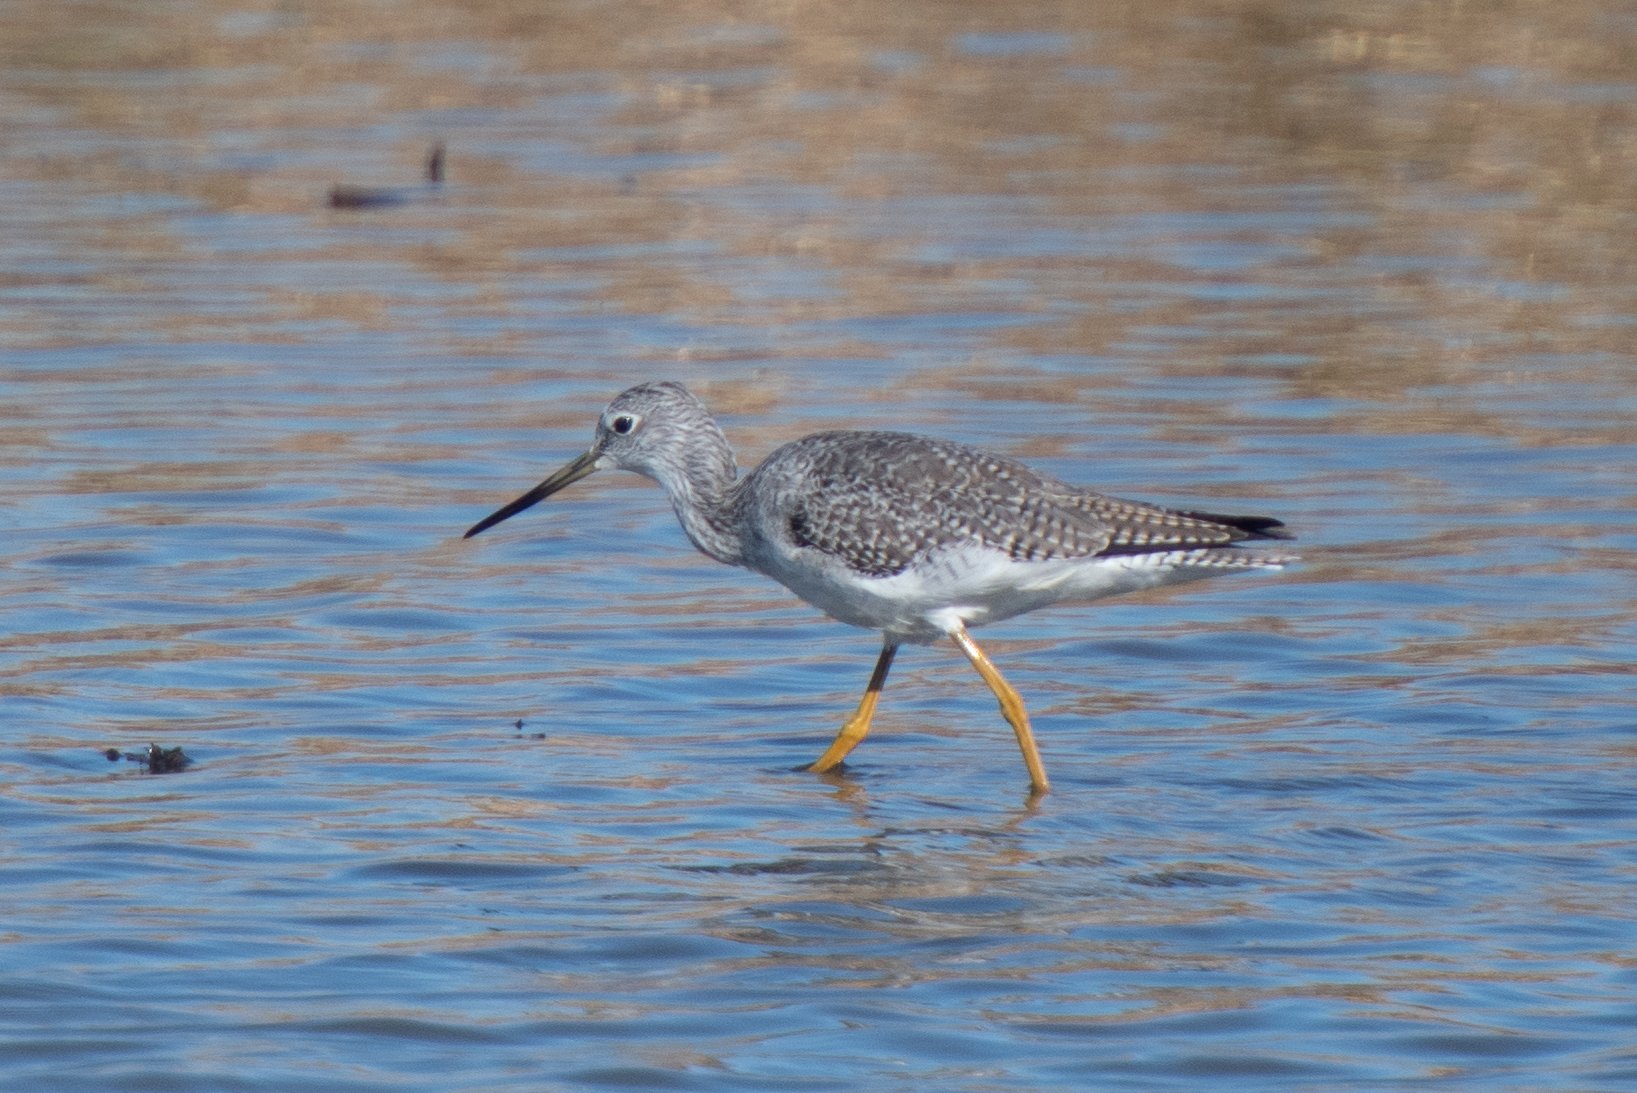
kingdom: Animalia
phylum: Chordata
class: Aves
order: Charadriiformes
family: Scolopacidae
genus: Tringa
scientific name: Tringa melanoleuca
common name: Greater yellowlegs
